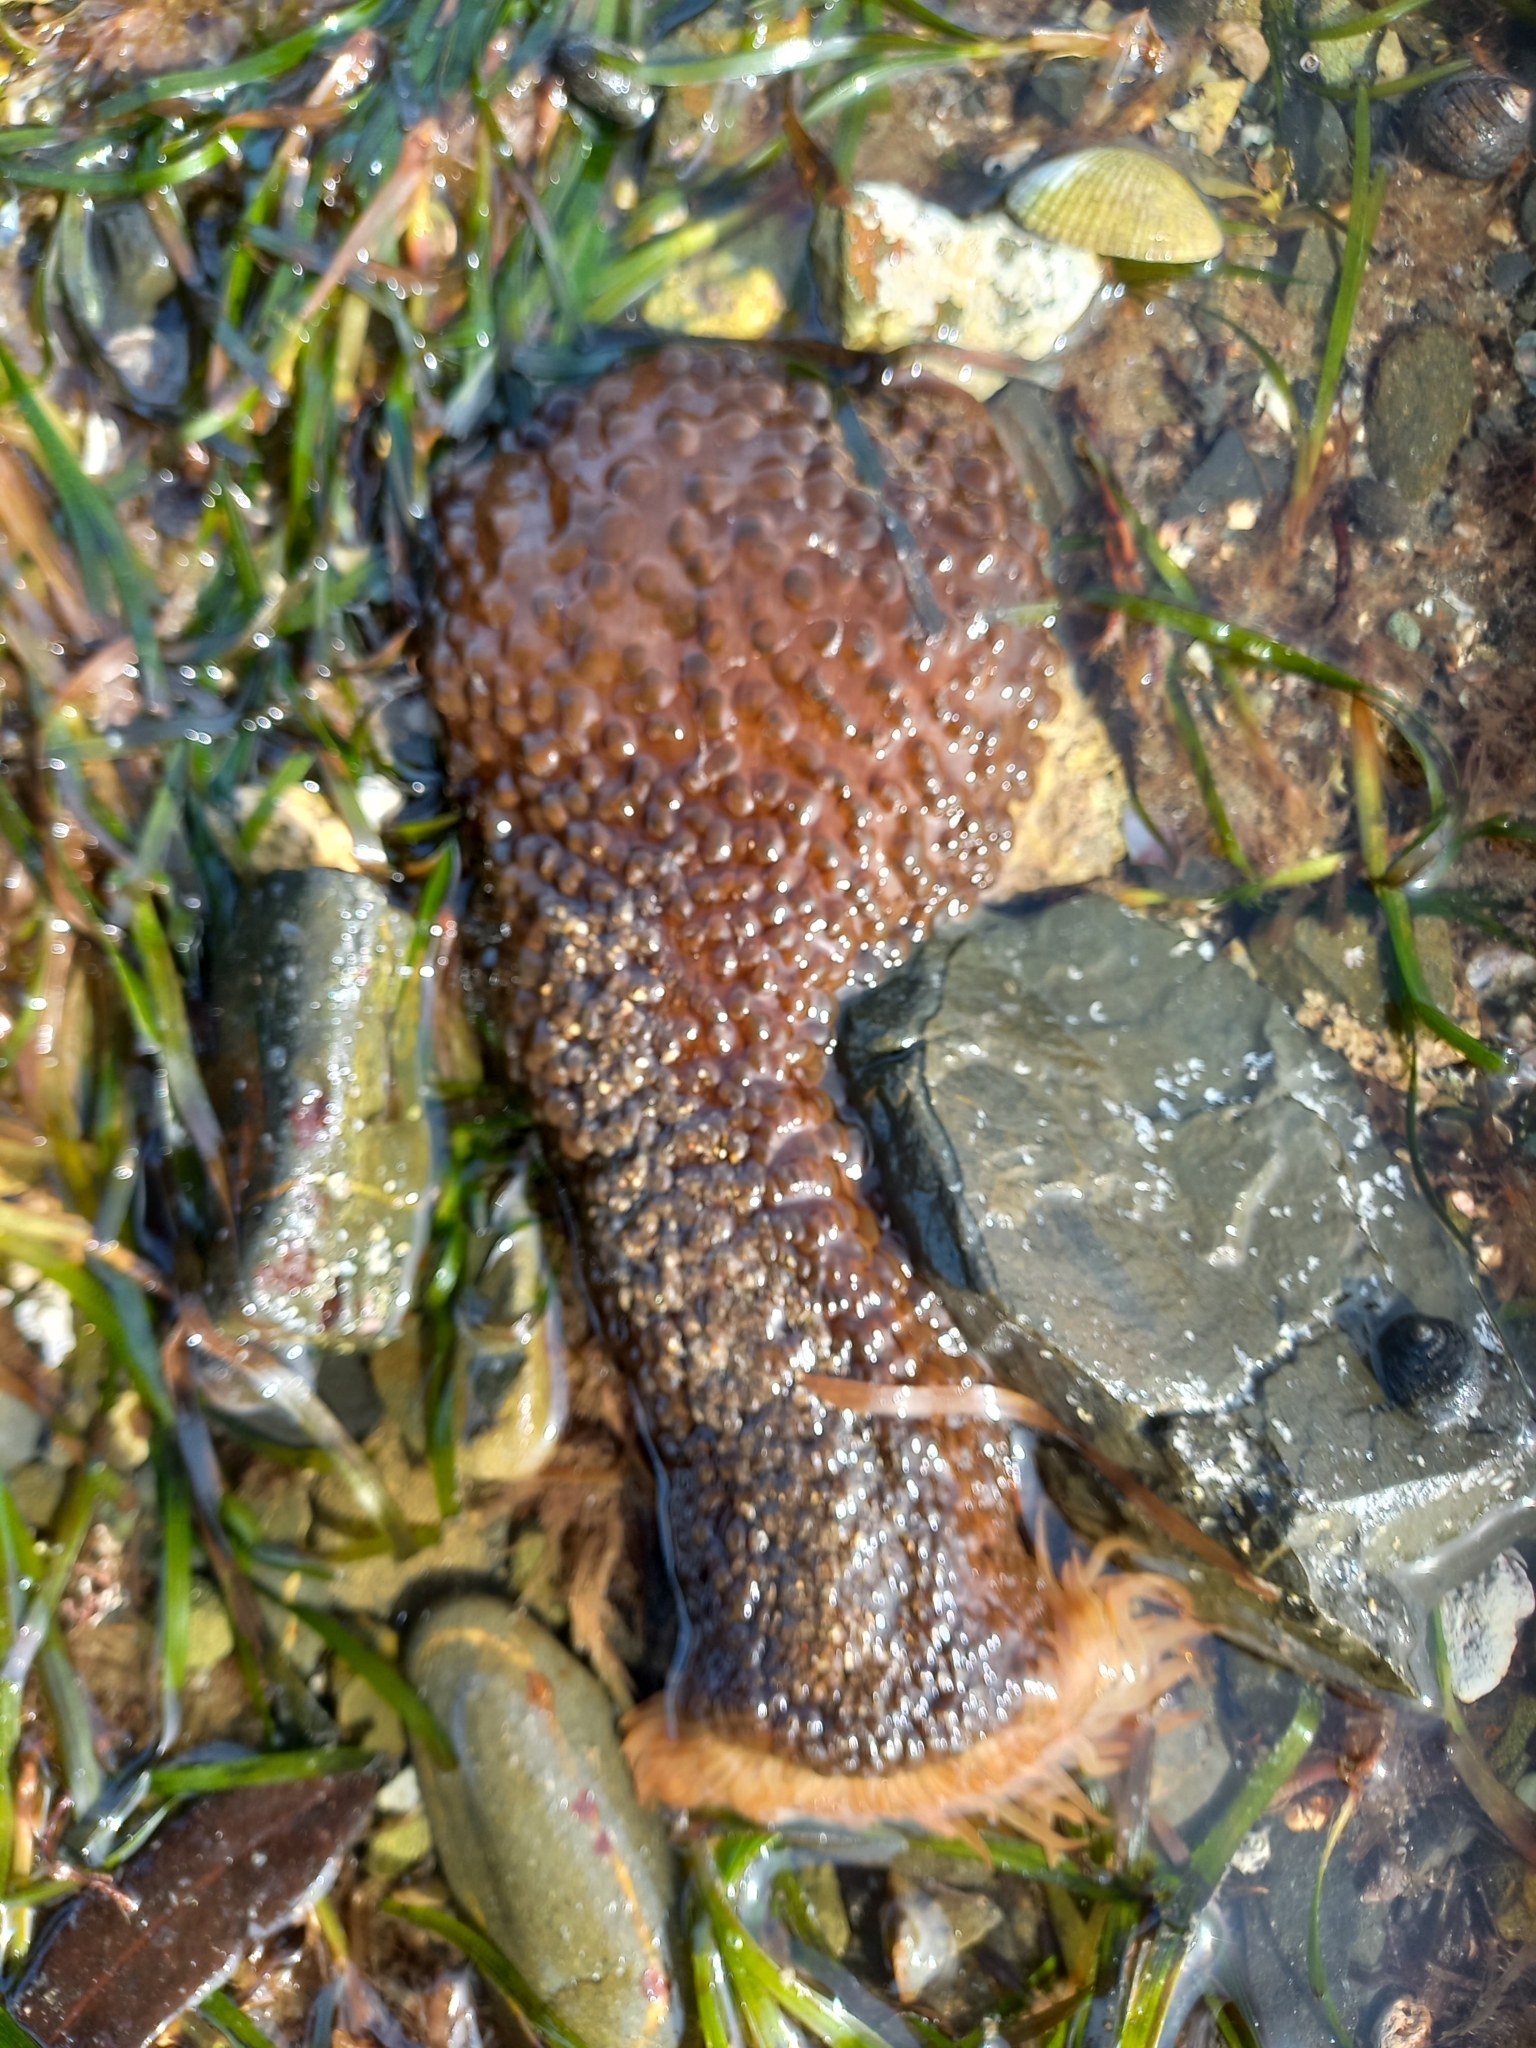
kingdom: Animalia
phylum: Cnidaria
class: Anthozoa
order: Actiniaria
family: Actiniidae
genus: Phlyctenactis
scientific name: Phlyctenactis tuberculosa
